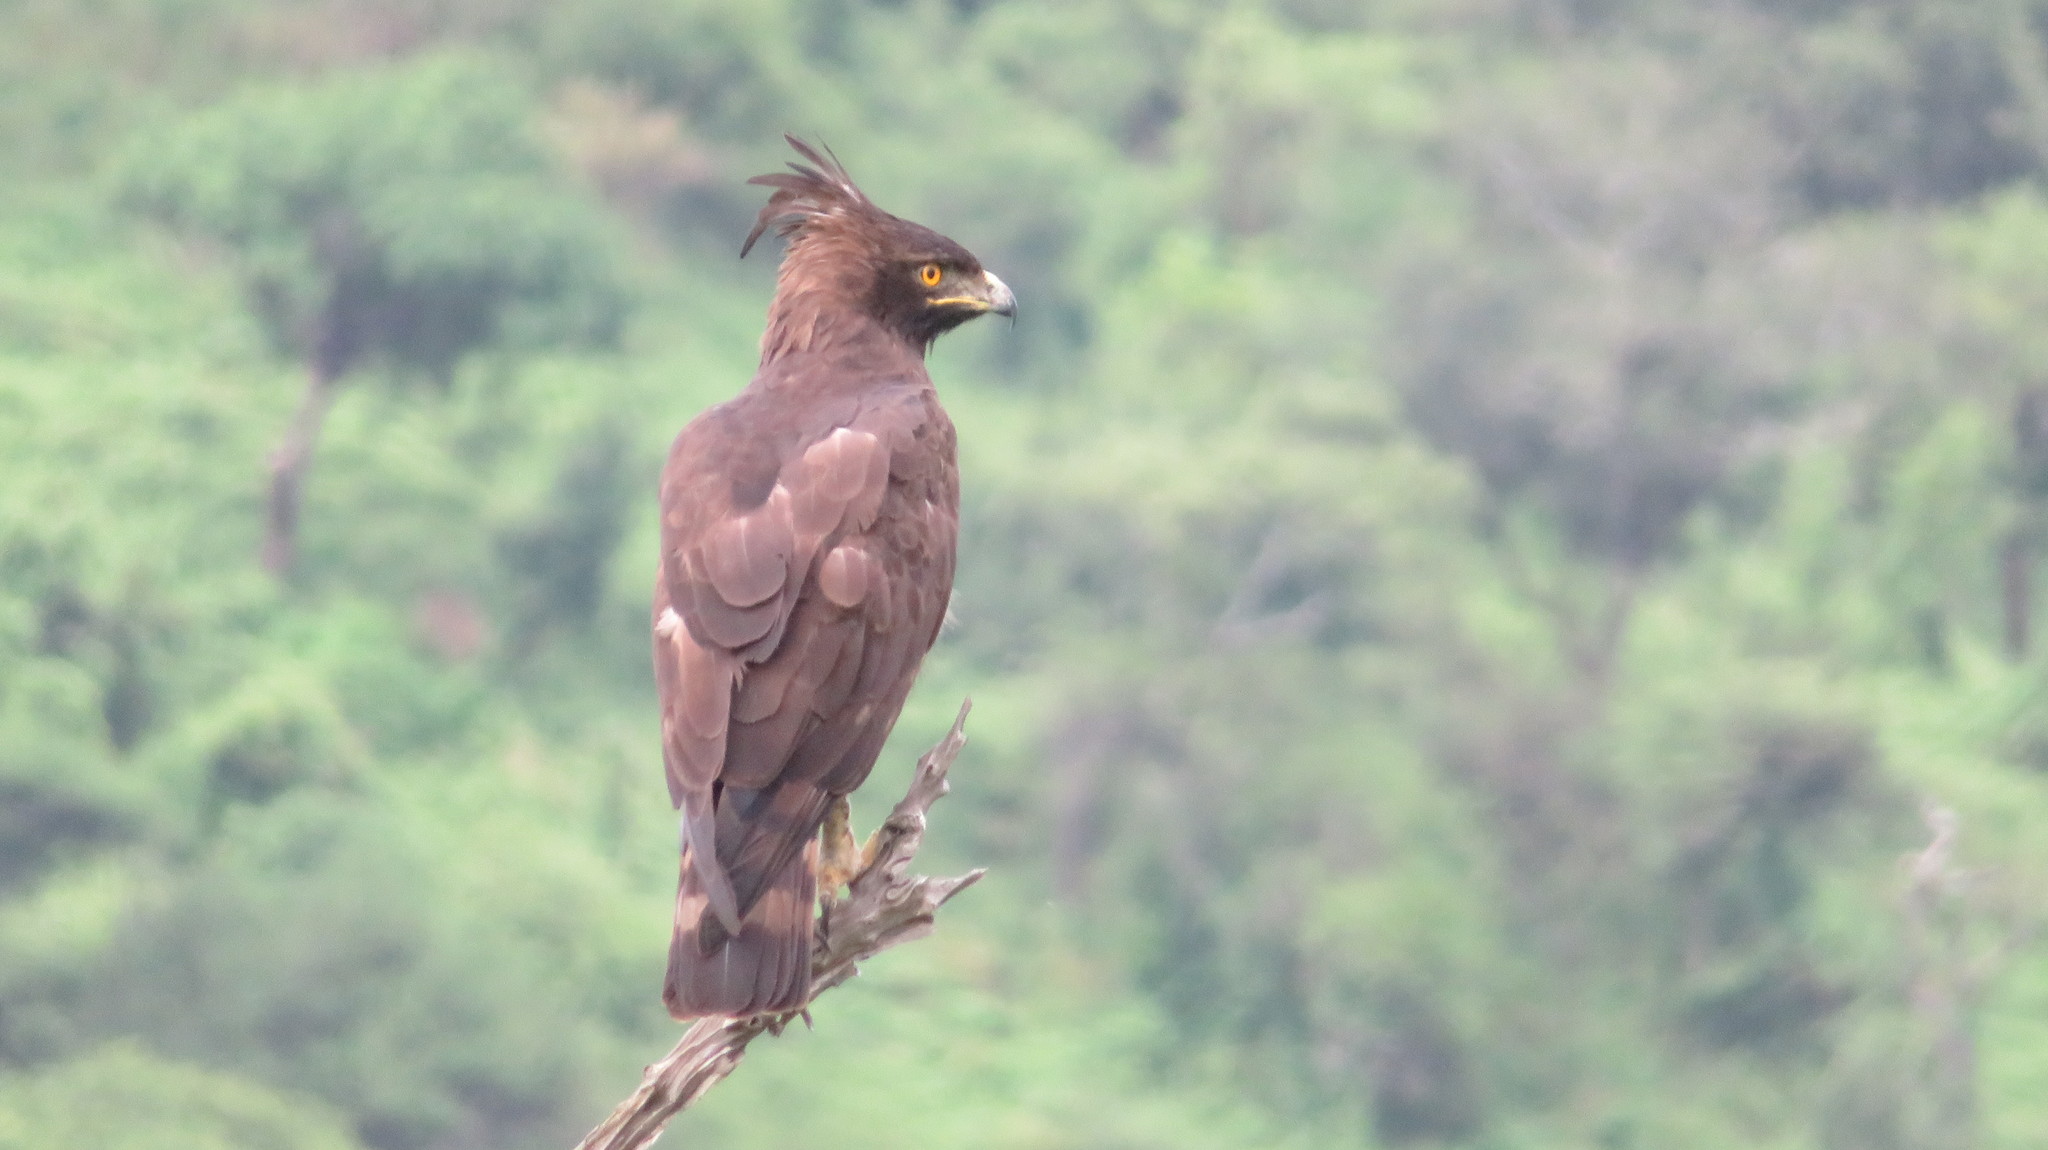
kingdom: Animalia
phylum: Chordata
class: Aves
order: Accipitriformes
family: Accipitridae
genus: Lophaetus
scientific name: Lophaetus occipitalis
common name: Long-crested eagle
